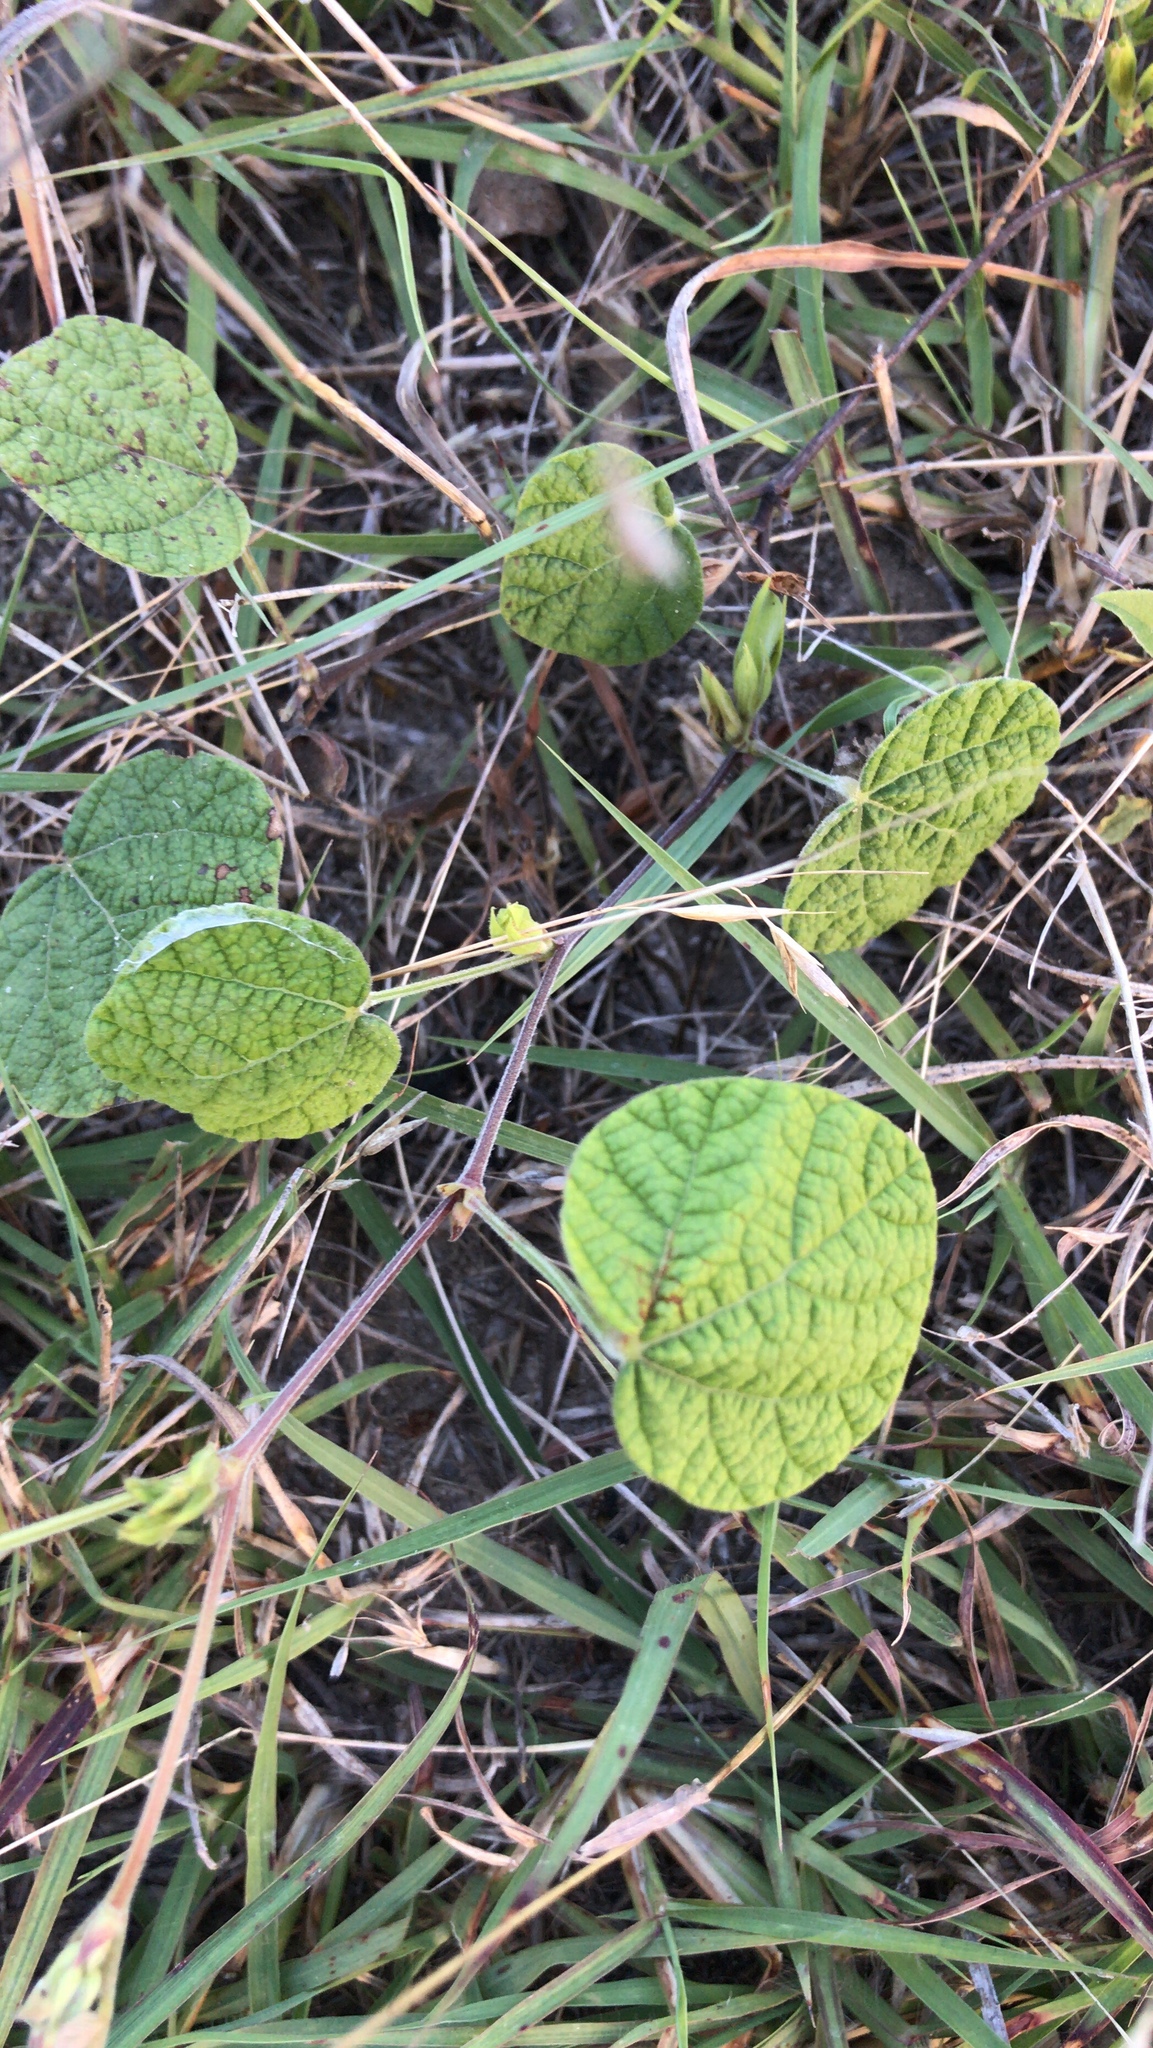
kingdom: Plantae
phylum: Tracheophyta
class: Magnoliopsida
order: Fabales
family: Fabaceae
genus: Rhynchosia
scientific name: Rhynchosia americana
